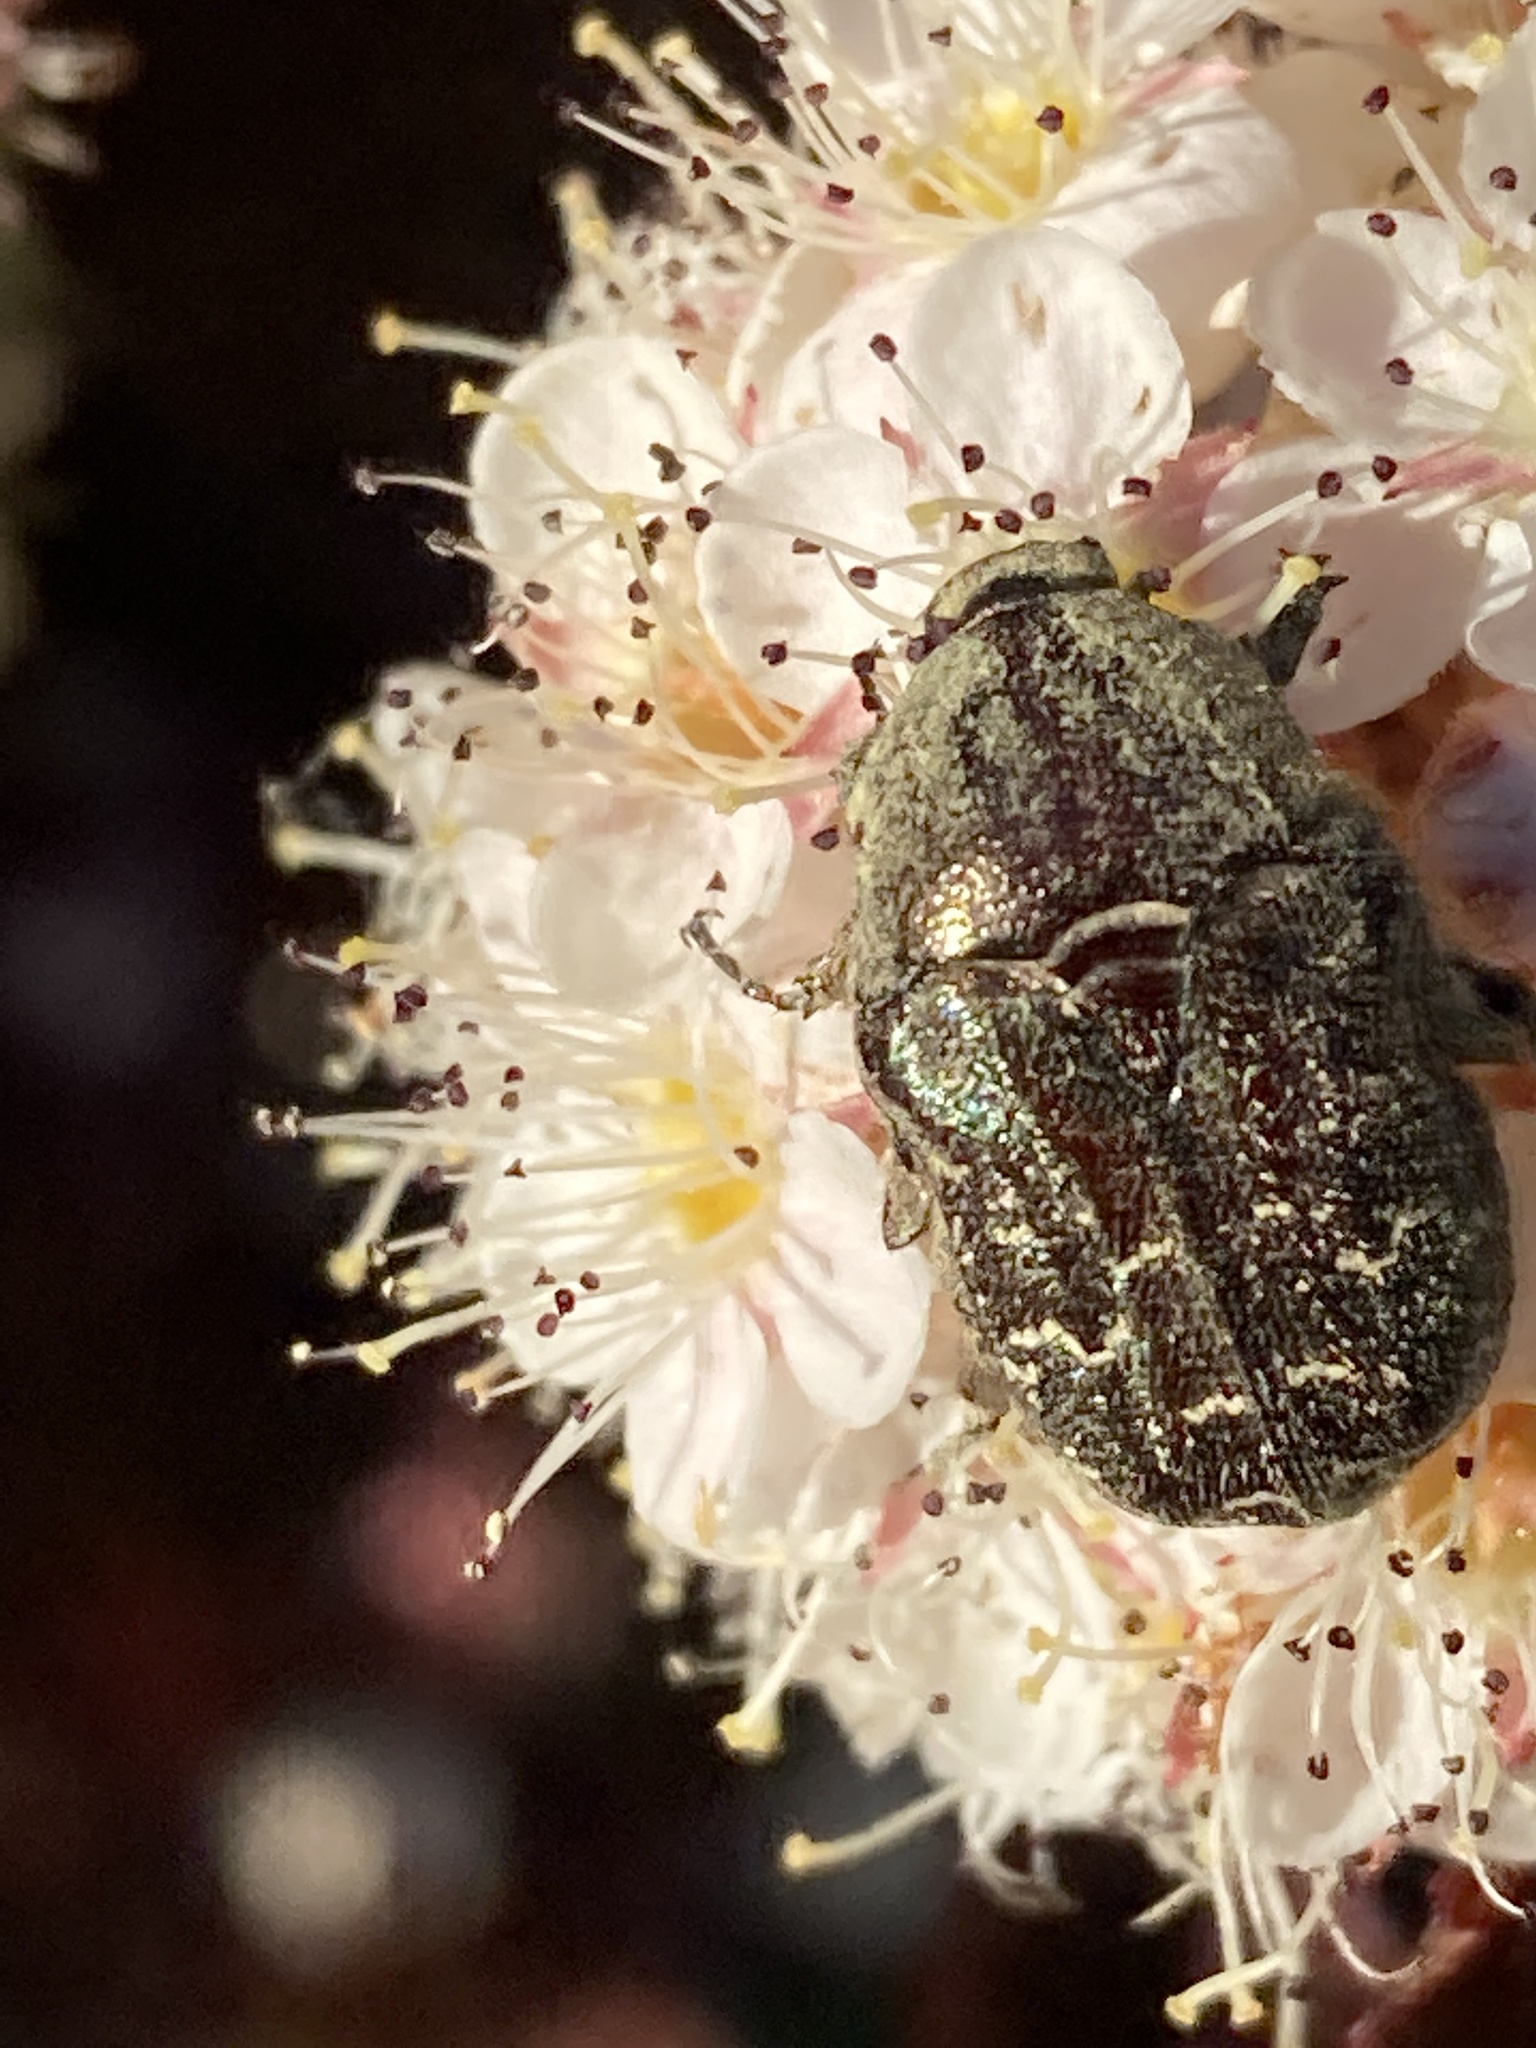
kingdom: Animalia
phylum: Arthropoda
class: Insecta
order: Coleoptera
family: Scarabaeidae
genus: Euphoria
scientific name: Euphoria sepulcralis
